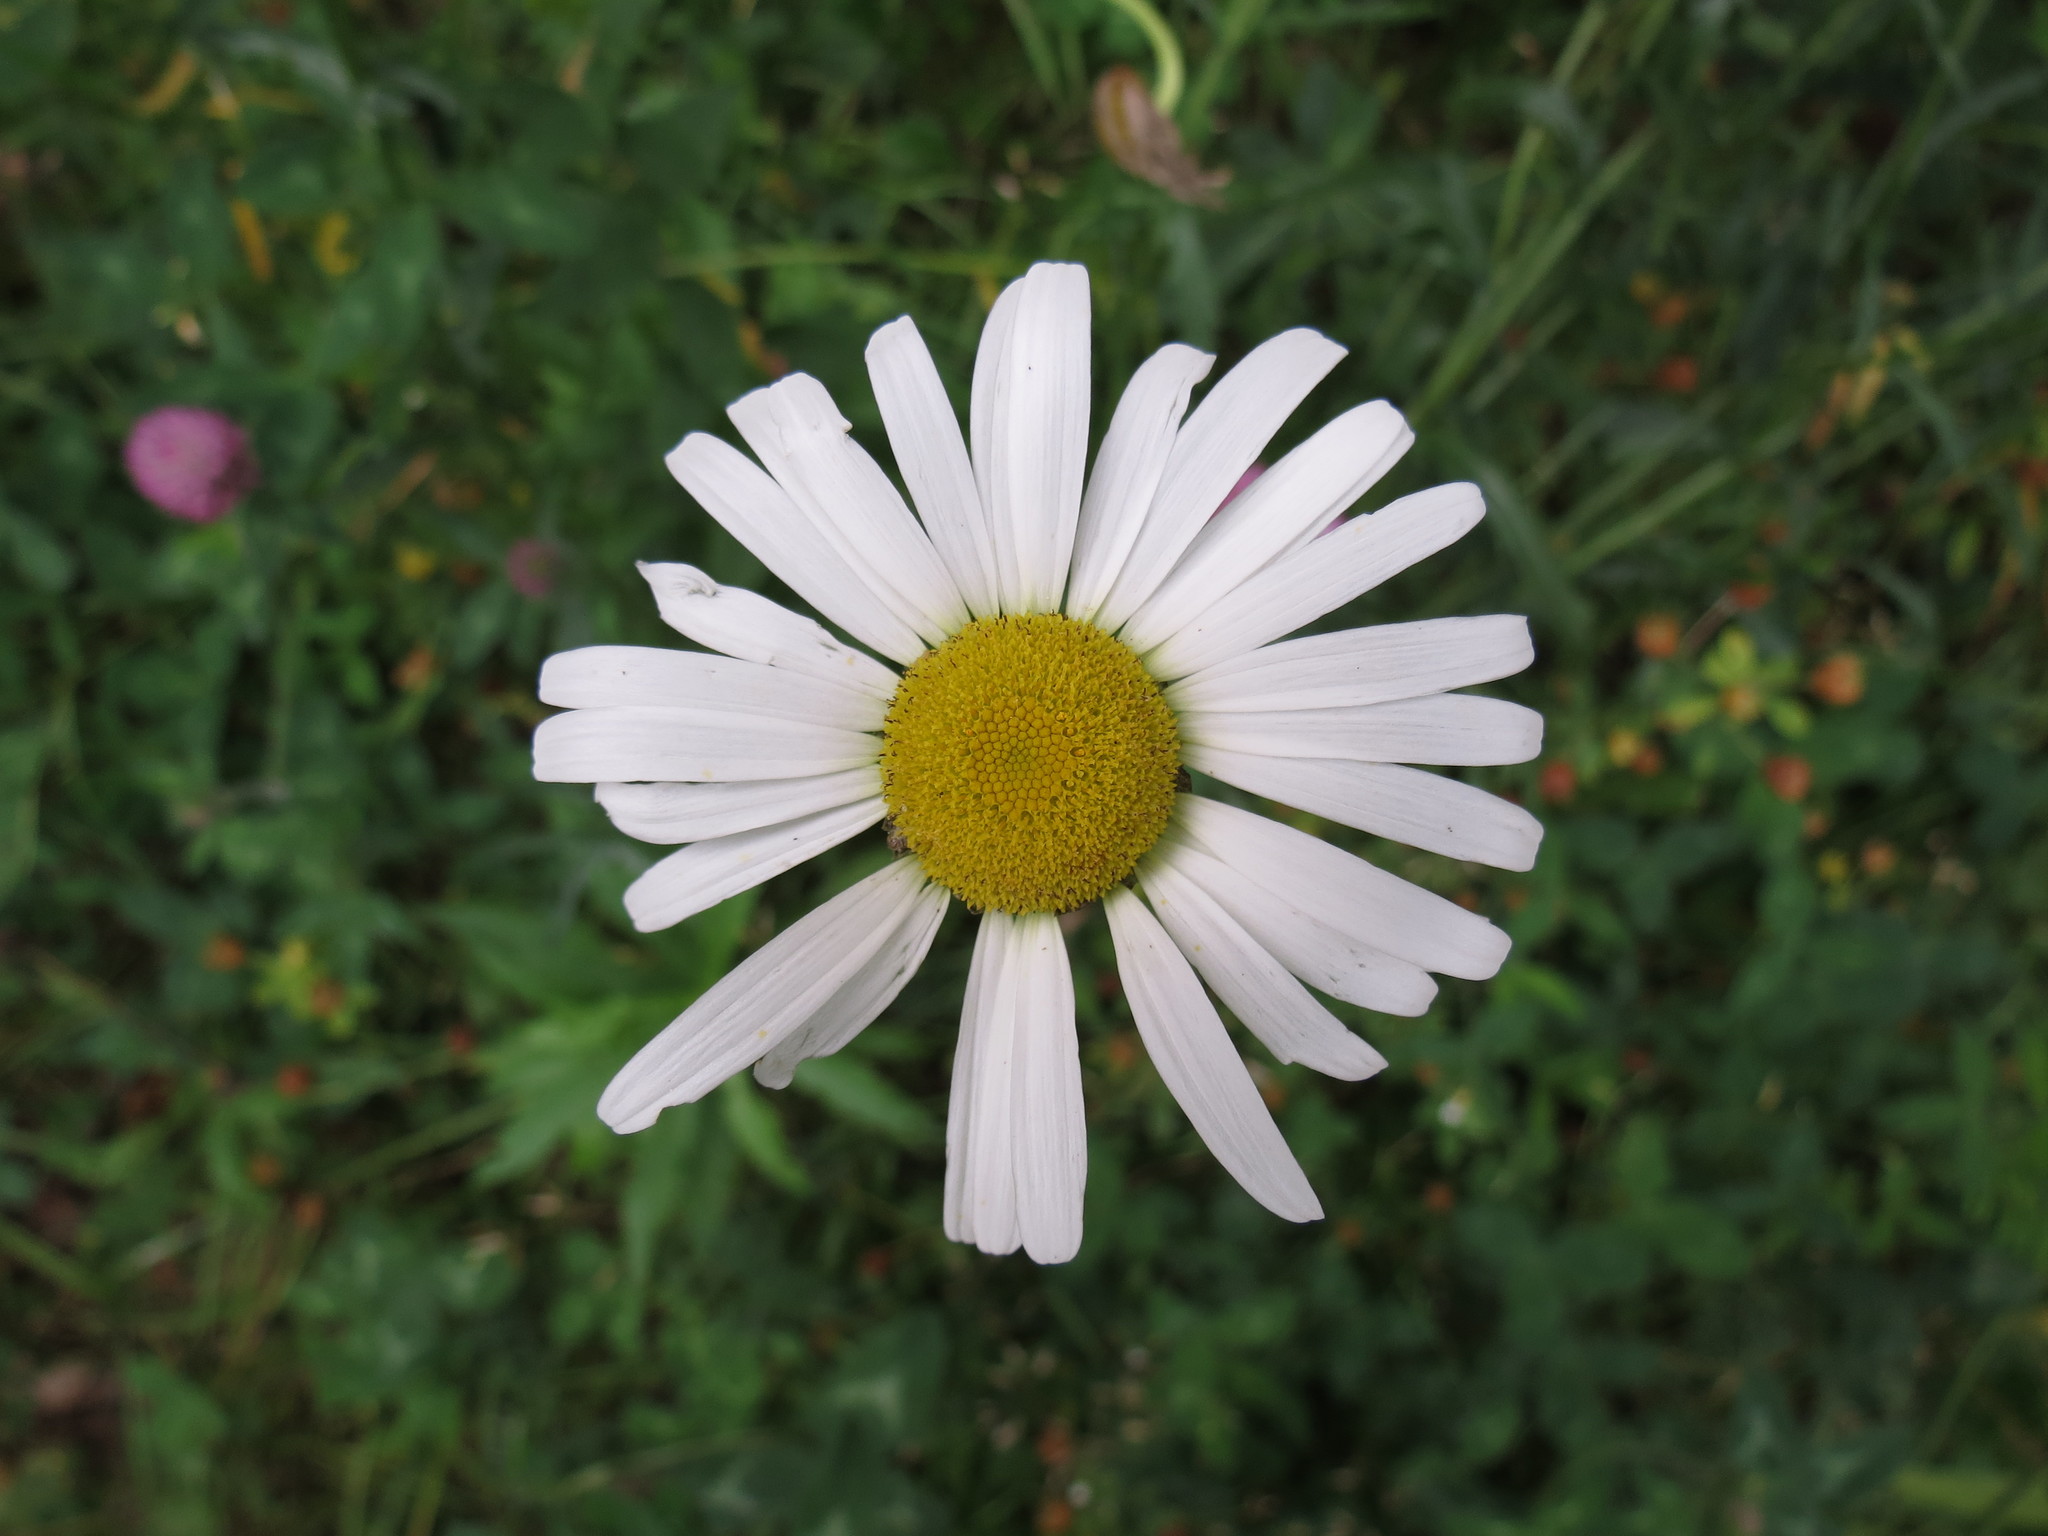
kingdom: Plantae
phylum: Tracheophyta
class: Magnoliopsida
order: Asterales
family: Asteraceae
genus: Leucanthemum
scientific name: Leucanthemum vulgare
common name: Oxeye daisy
